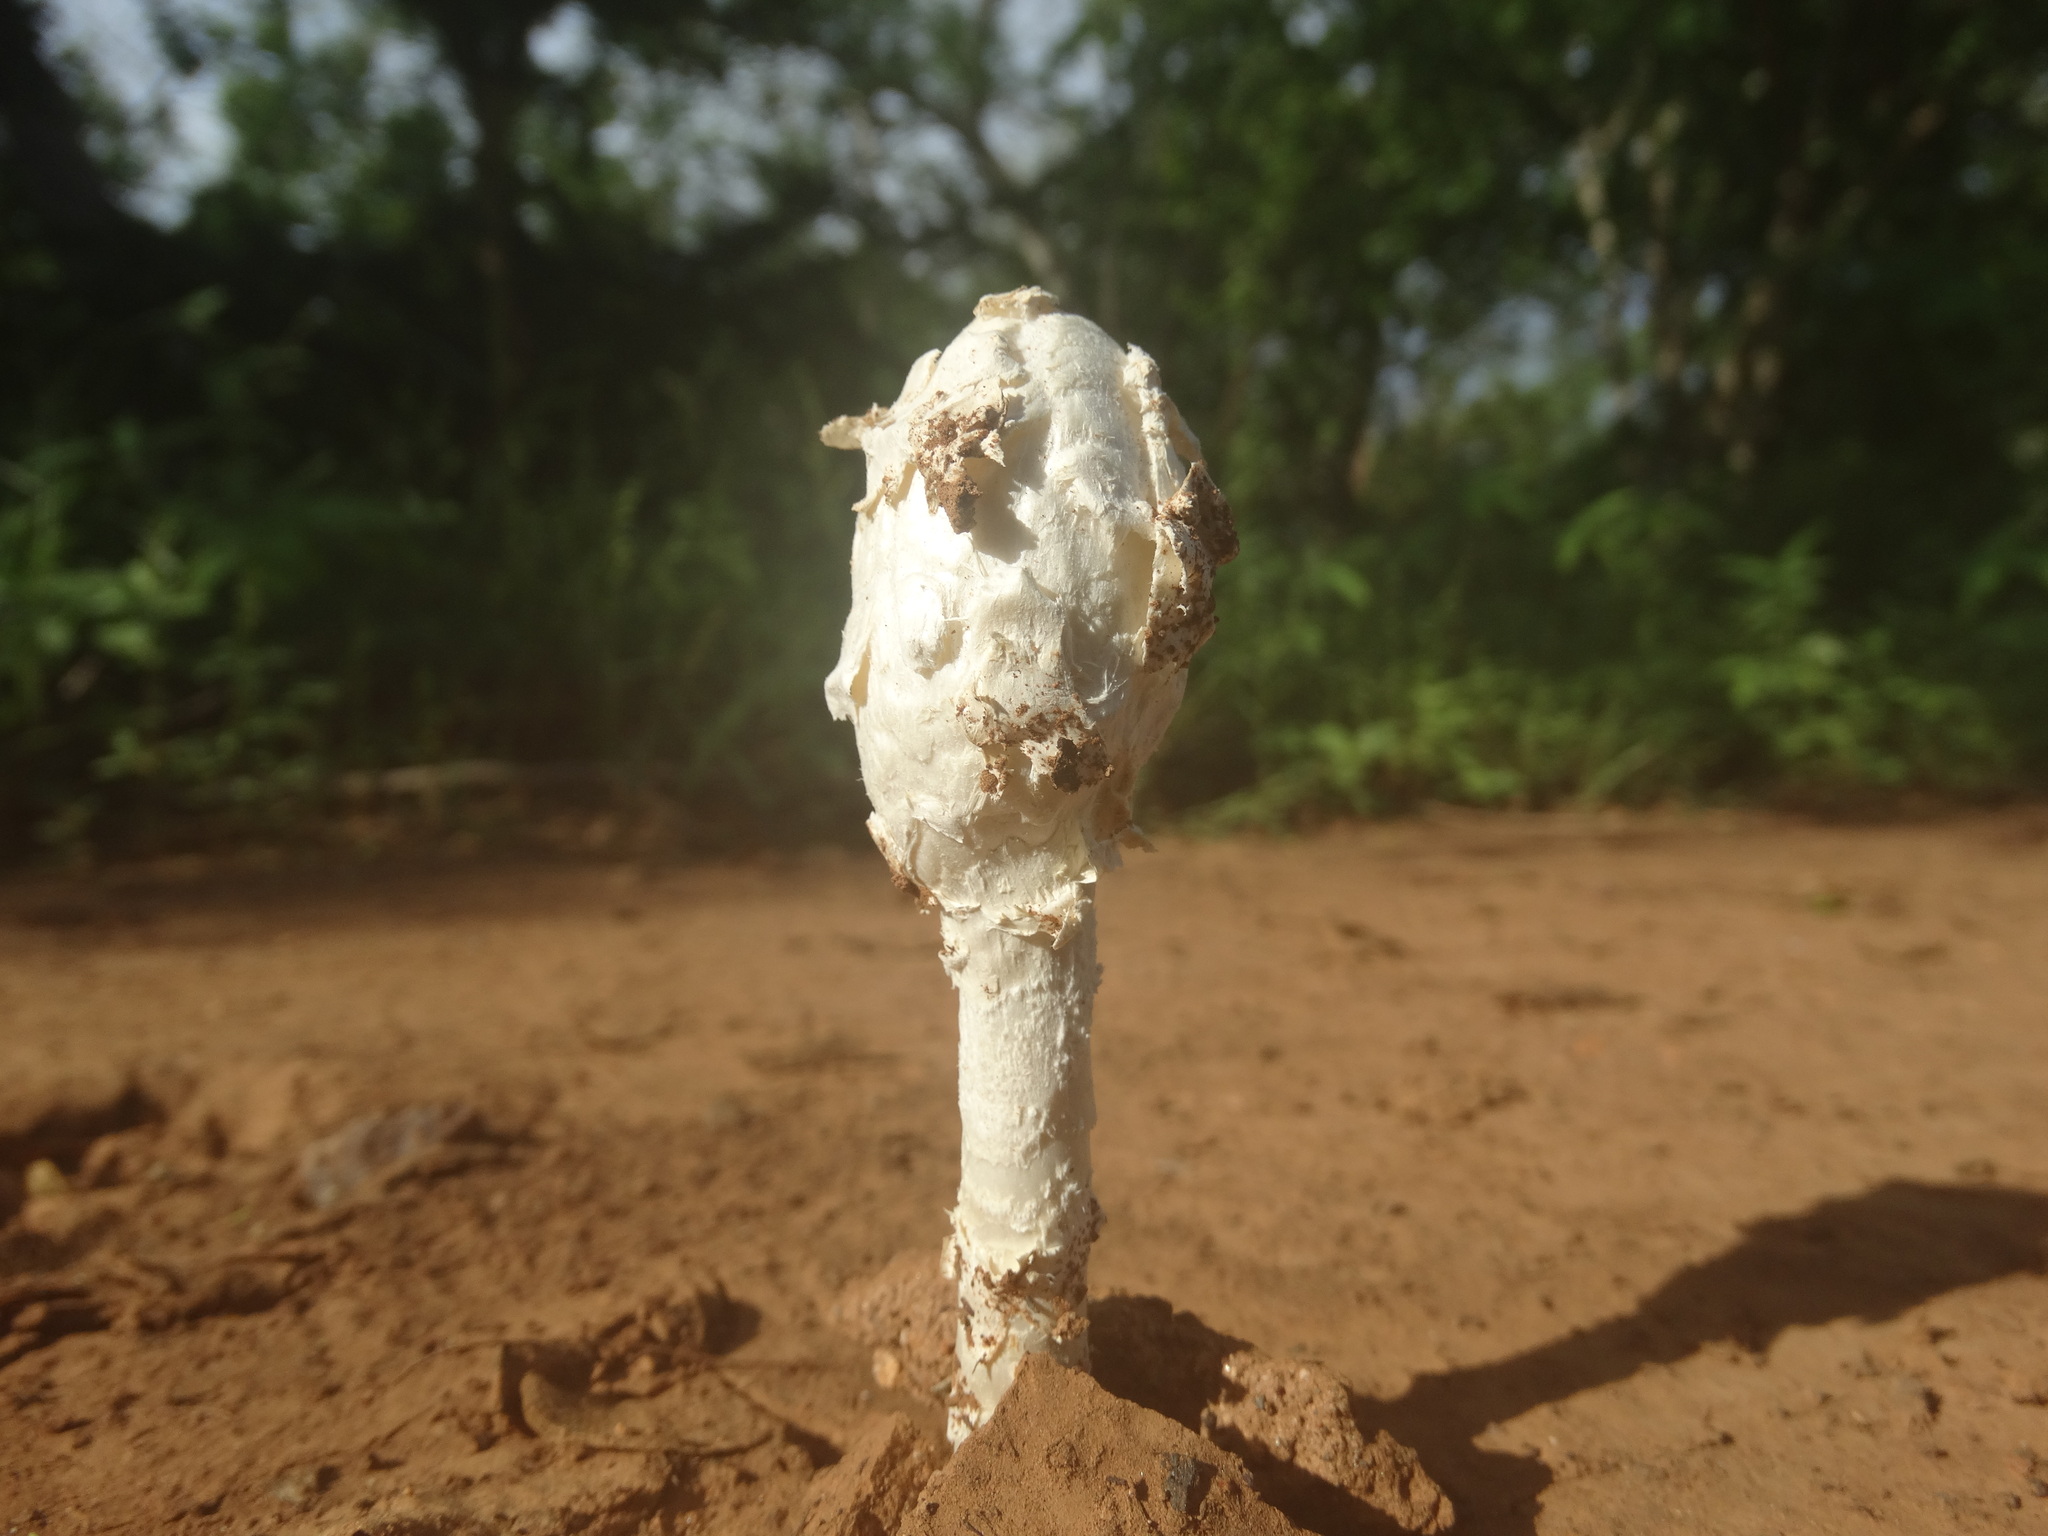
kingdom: Fungi
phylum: Basidiomycota
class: Agaricomycetes
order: Agaricales
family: Agaricaceae
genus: Podaxis
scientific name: Podaxis
